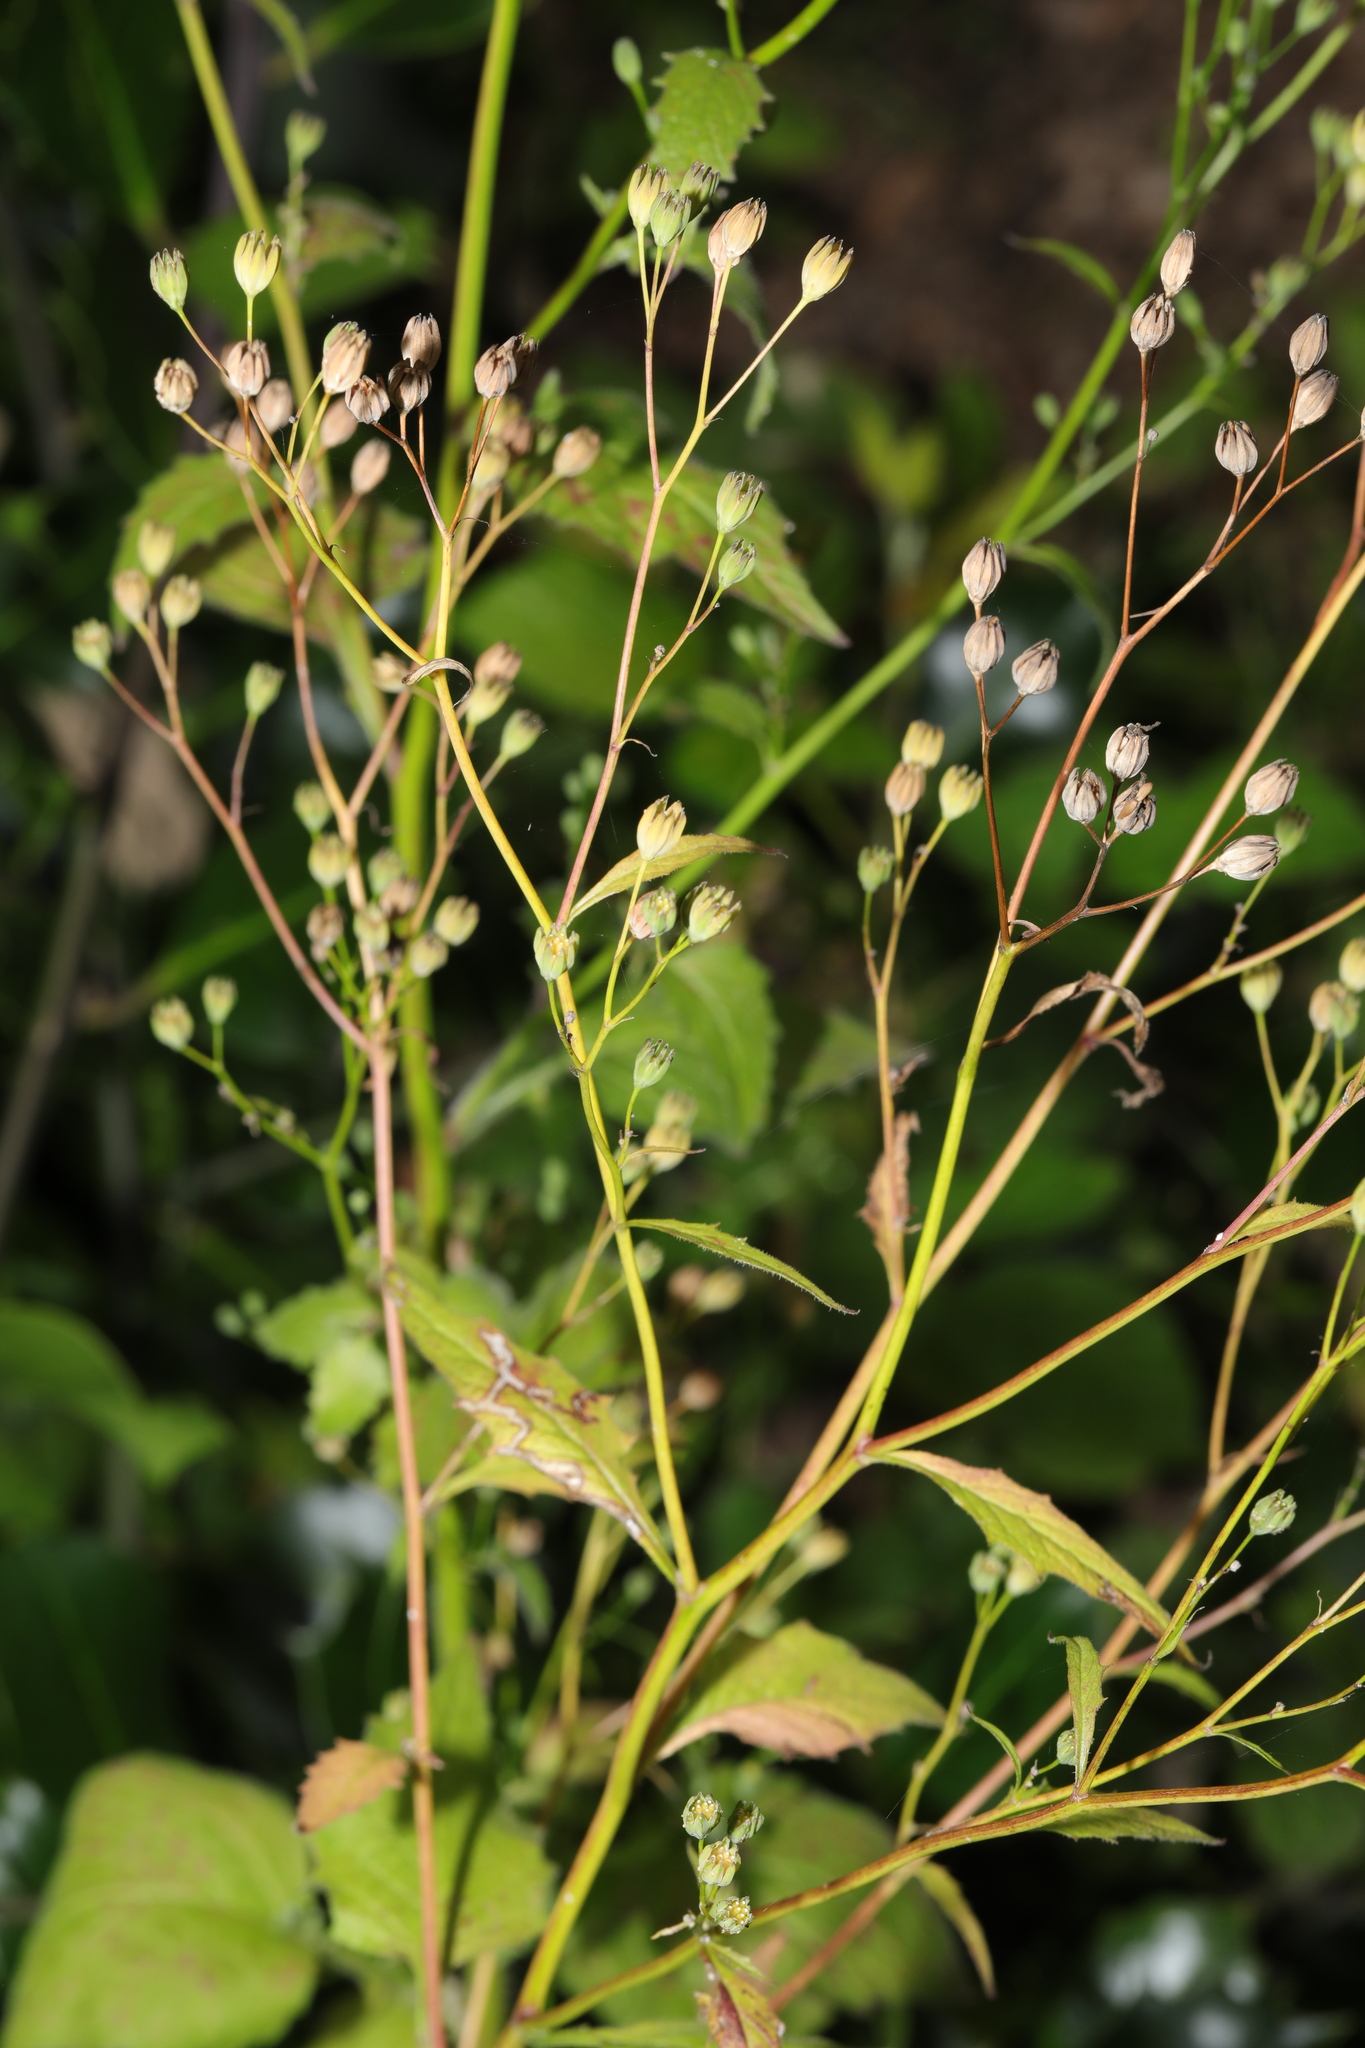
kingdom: Plantae
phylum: Tracheophyta
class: Magnoliopsida
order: Asterales
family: Asteraceae
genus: Lapsana
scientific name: Lapsana communis
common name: Nipplewort
